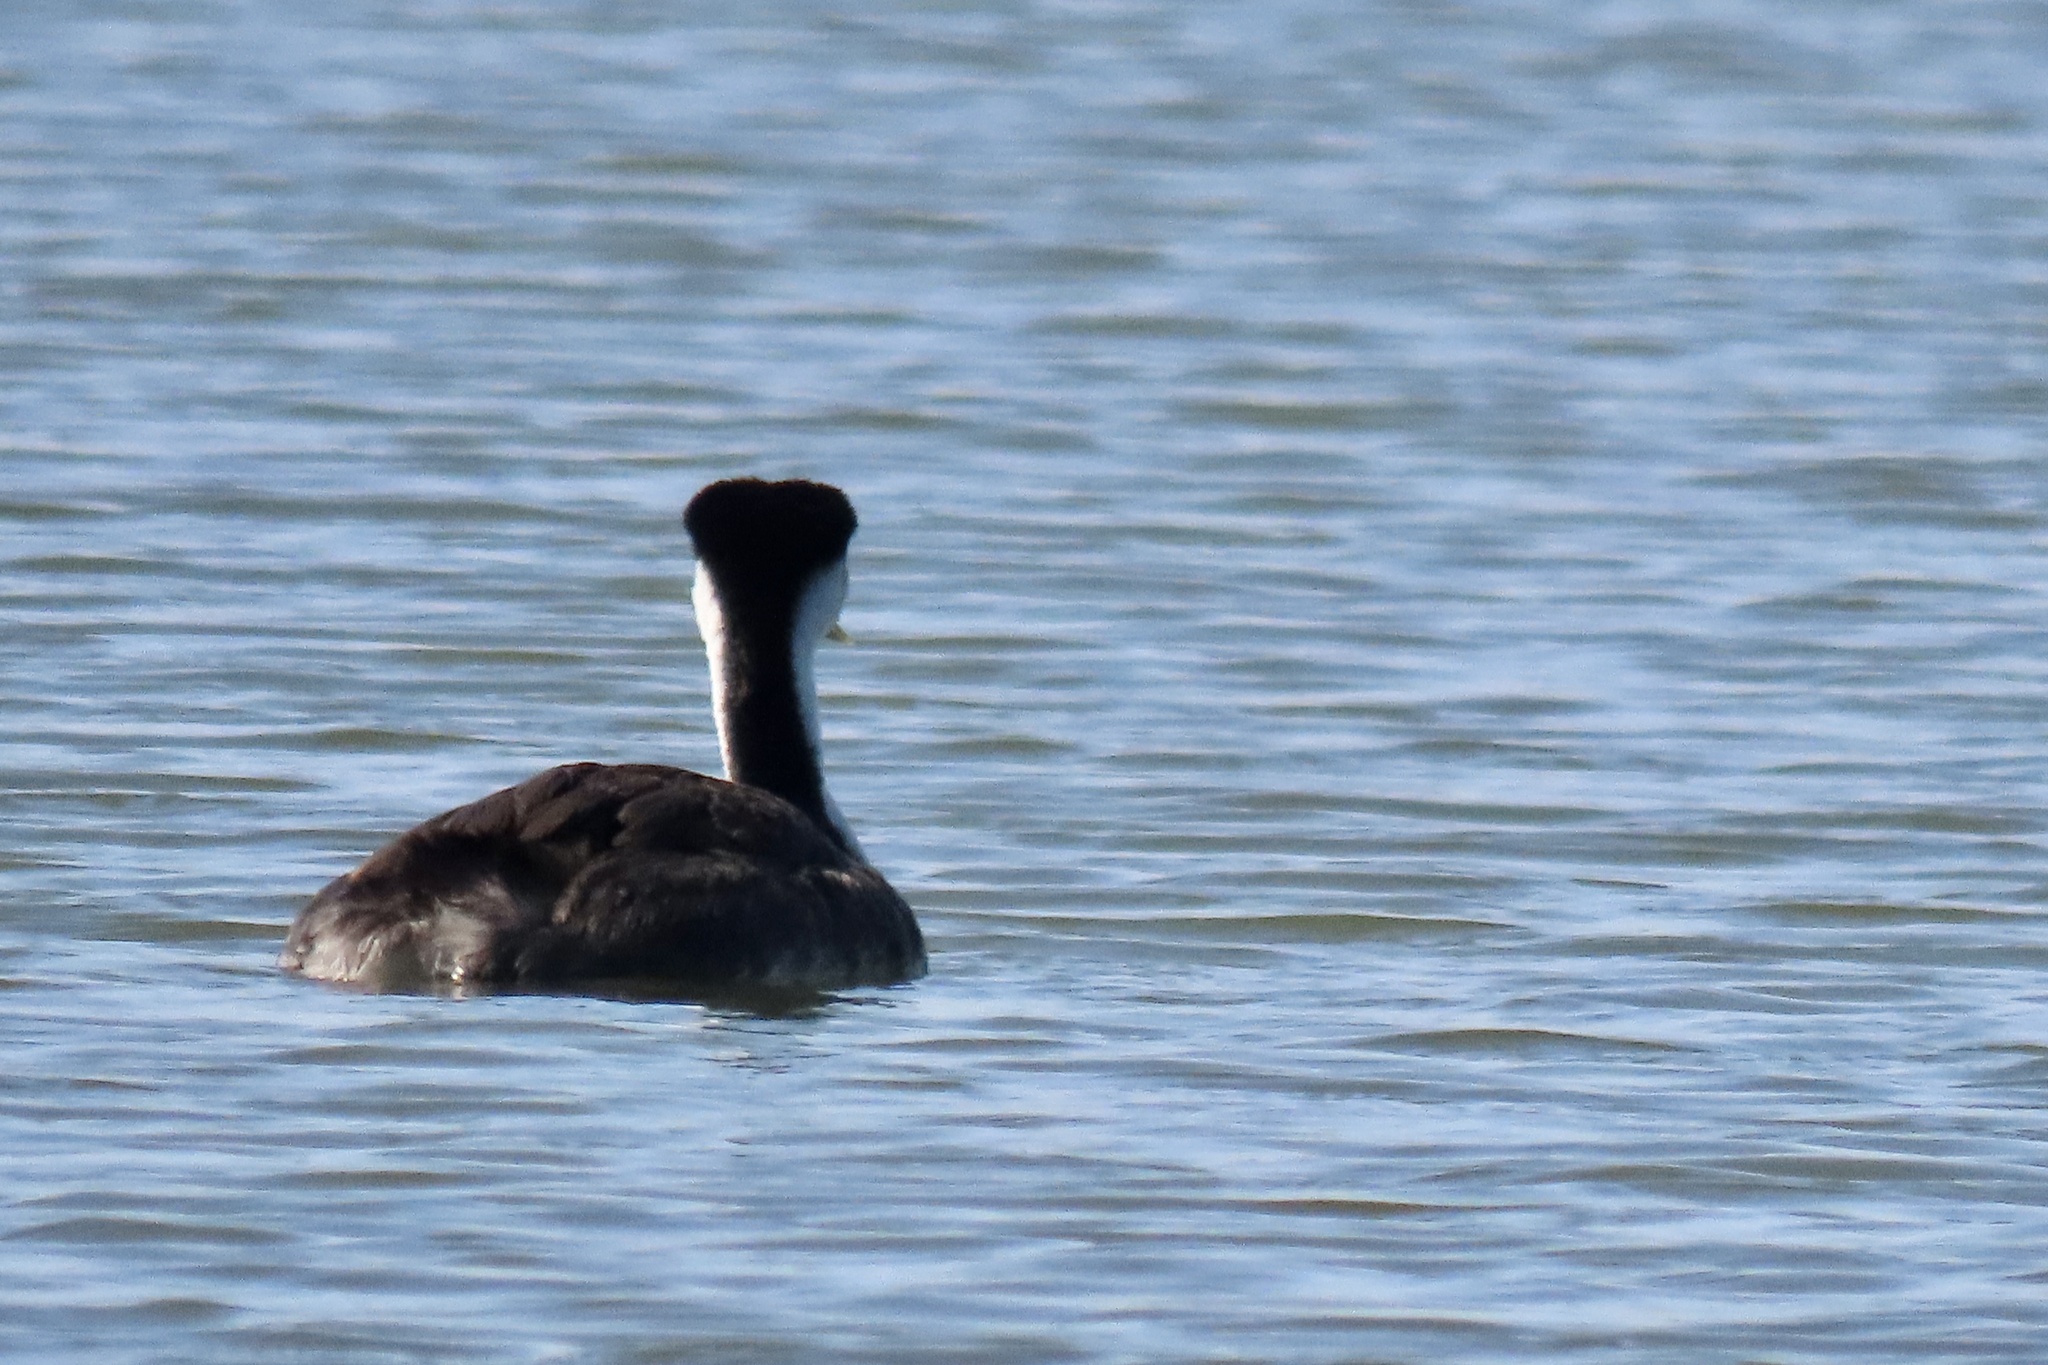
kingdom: Animalia
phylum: Chordata
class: Aves
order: Podicipediformes
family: Podicipedidae
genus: Aechmophorus
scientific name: Aechmophorus occidentalis
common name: Western grebe
